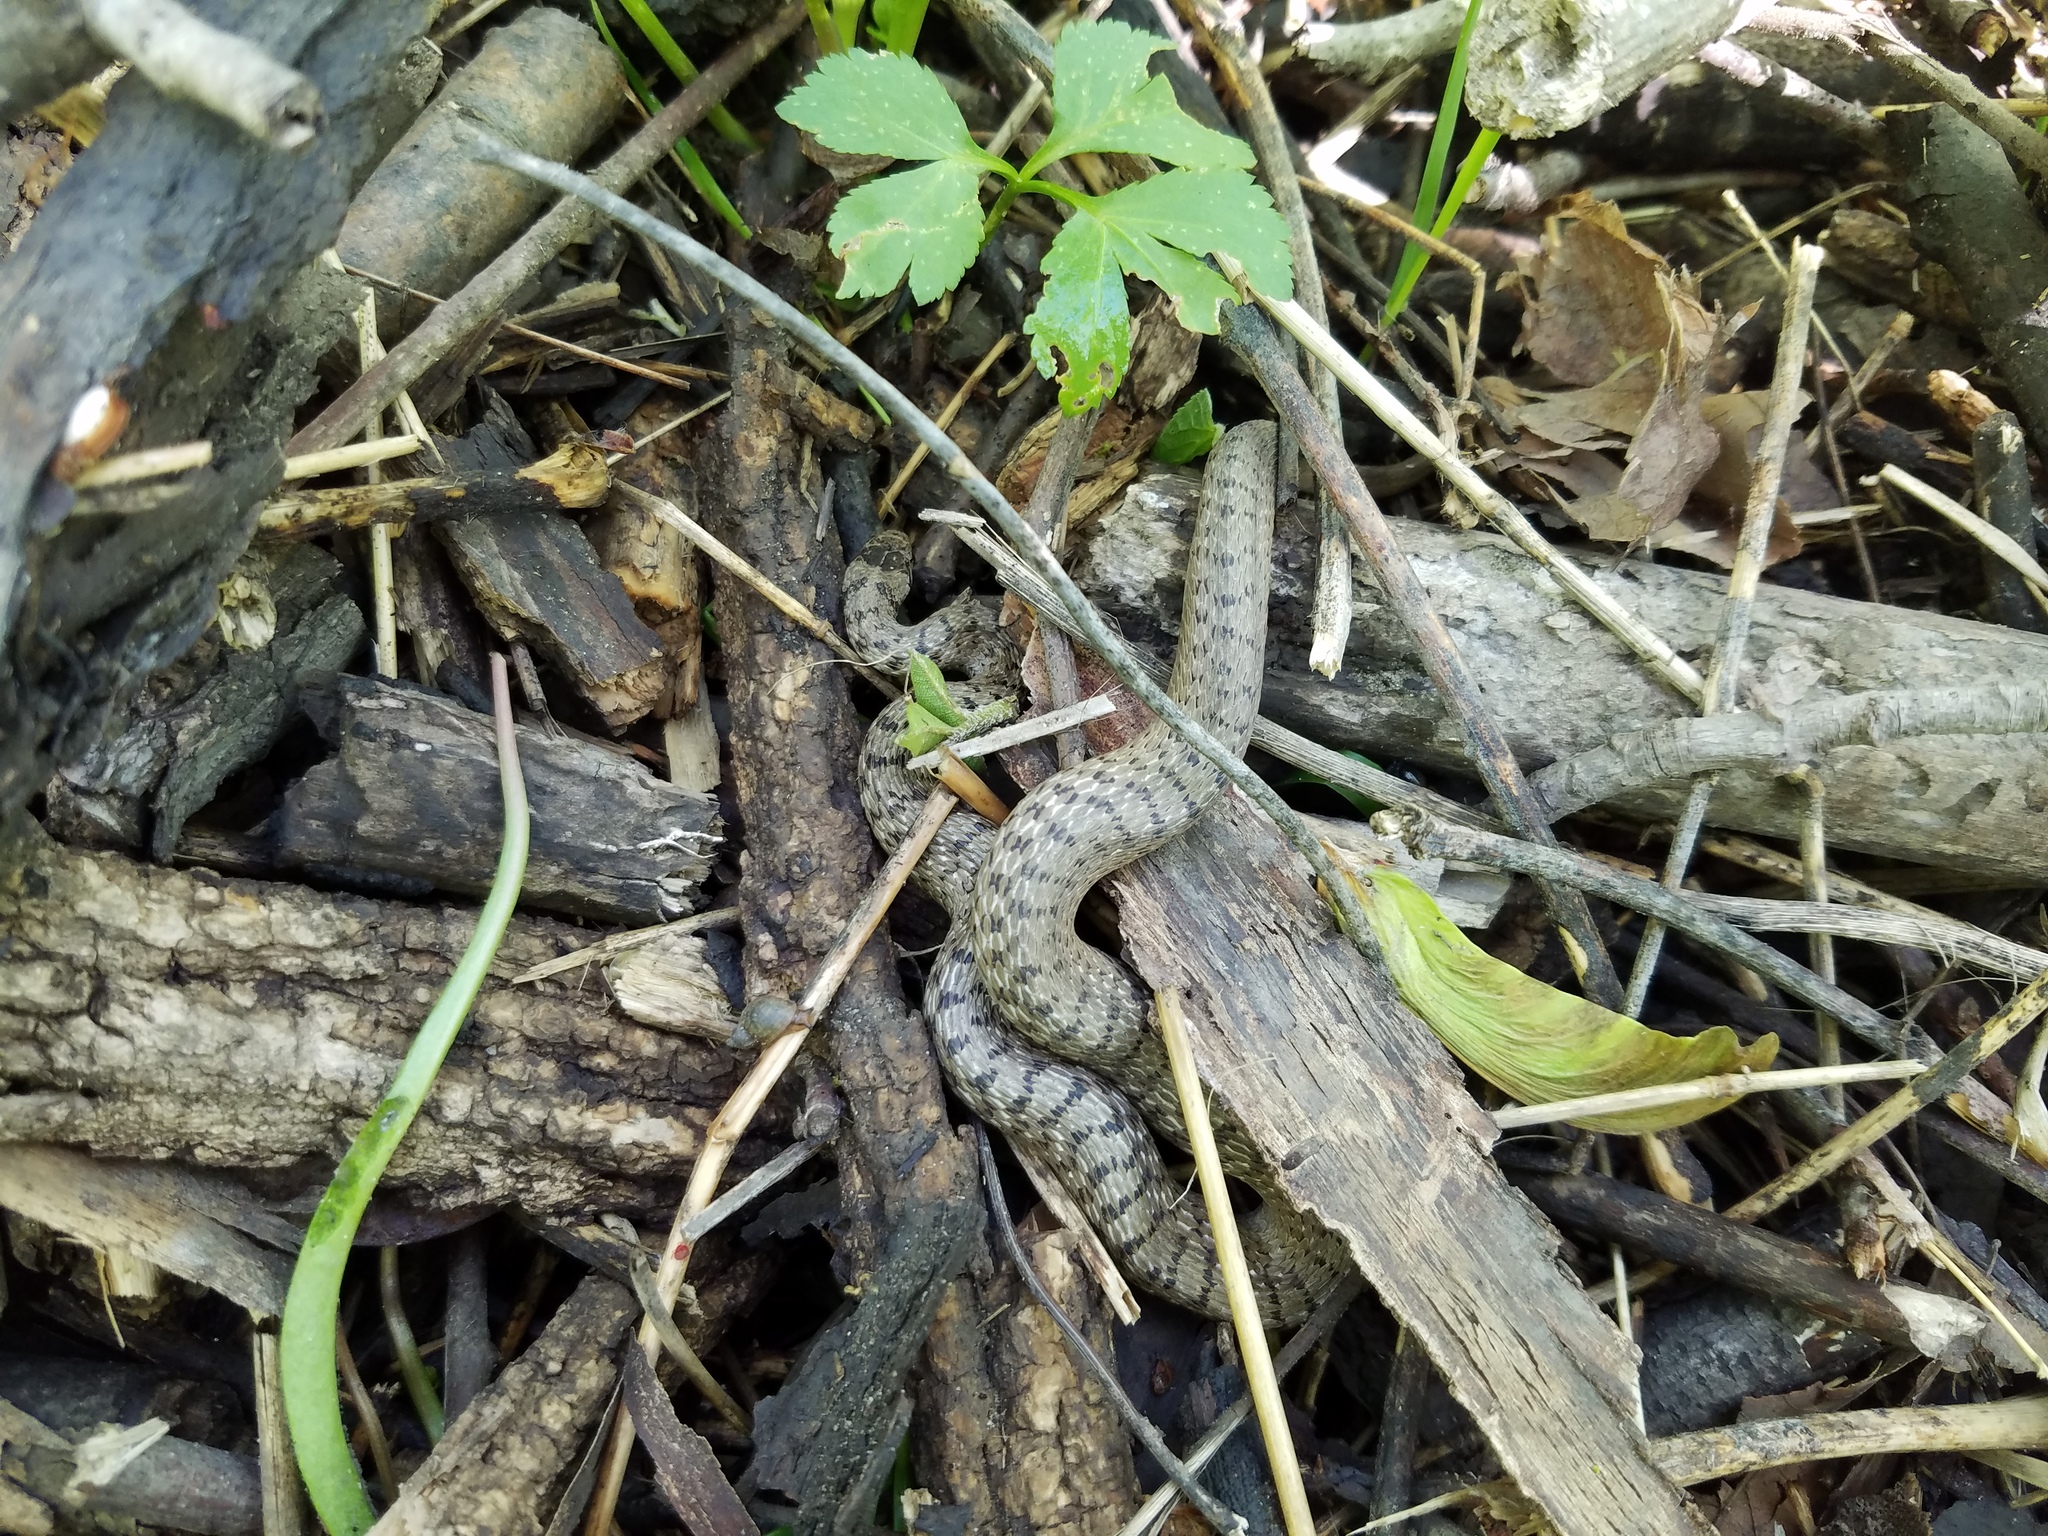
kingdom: Animalia
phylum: Chordata
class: Squamata
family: Colubridae
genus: Storeria
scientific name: Storeria dekayi
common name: (dekay’s) brown snake
